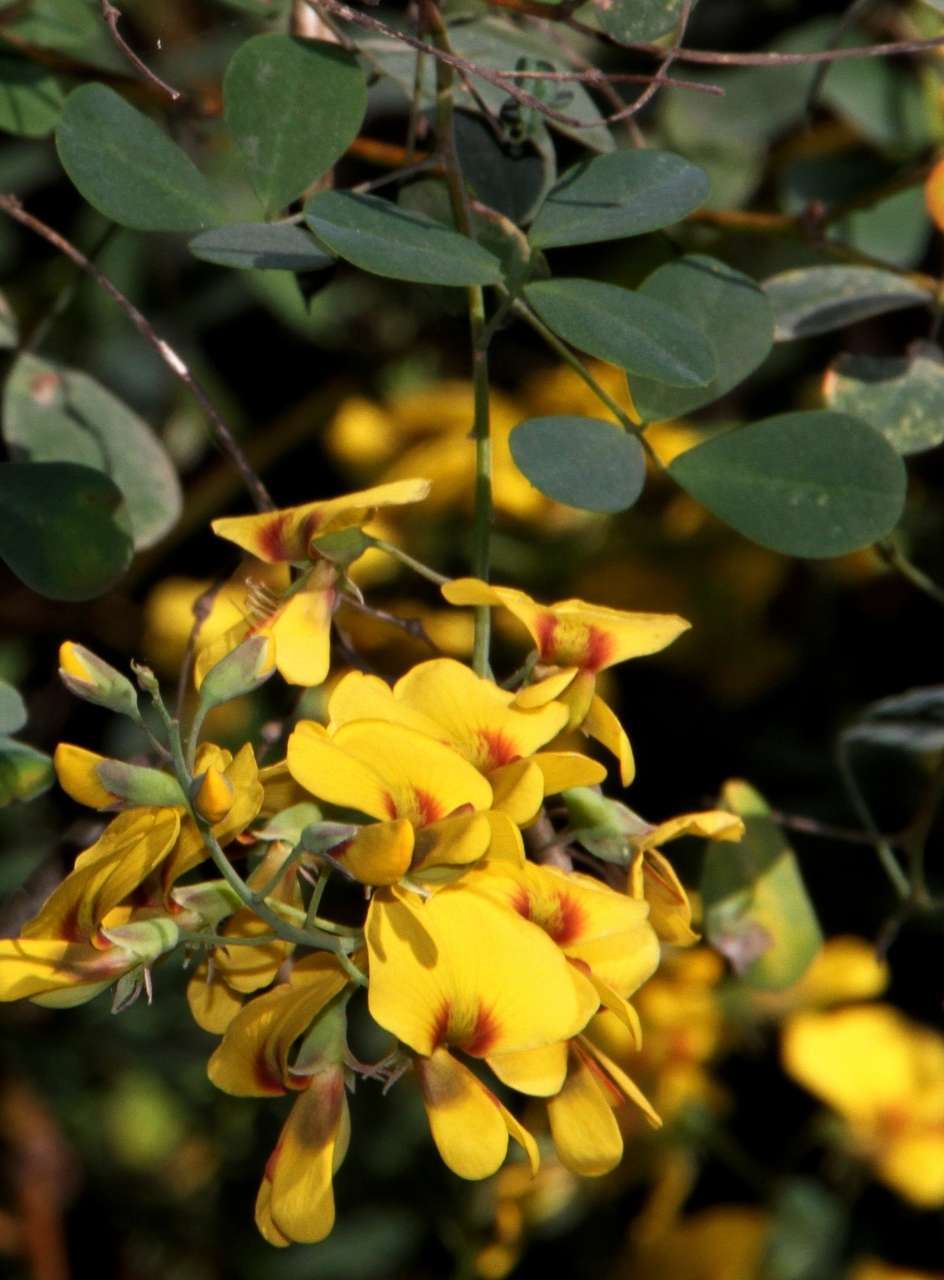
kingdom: Plantae
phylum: Tracheophyta
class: Magnoliopsida
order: Fabales
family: Fabaceae
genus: Goodia
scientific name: Goodia lotifolia
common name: Cloverleaf-poison
